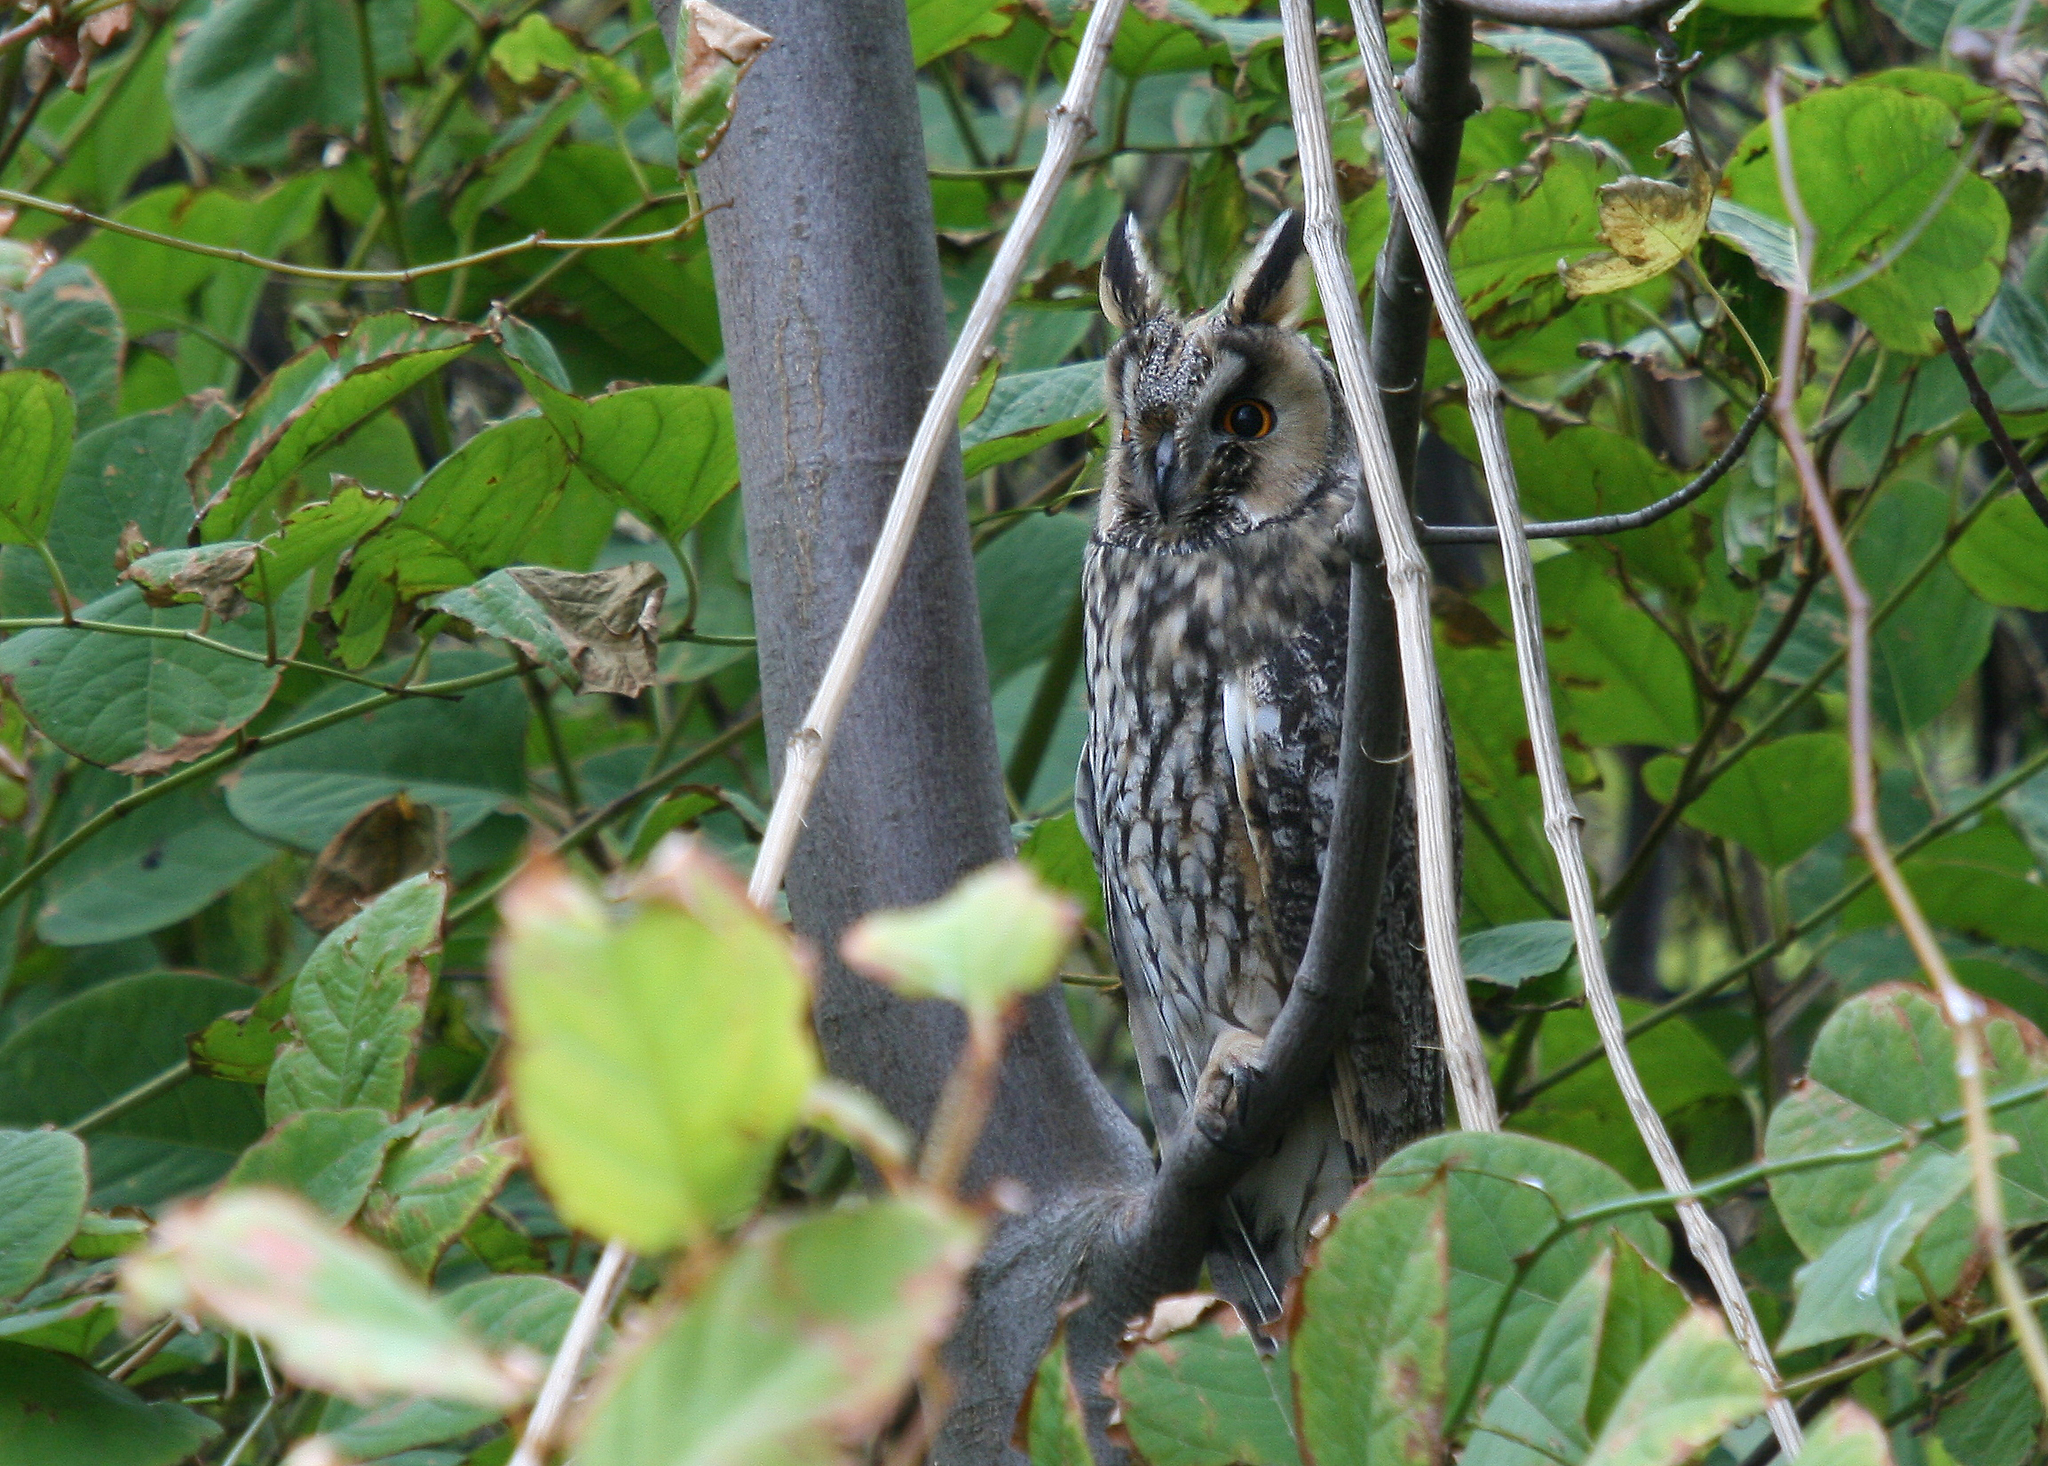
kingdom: Animalia
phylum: Chordata
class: Aves
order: Strigiformes
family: Strigidae
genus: Asio
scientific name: Asio otus
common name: Long-eared owl
